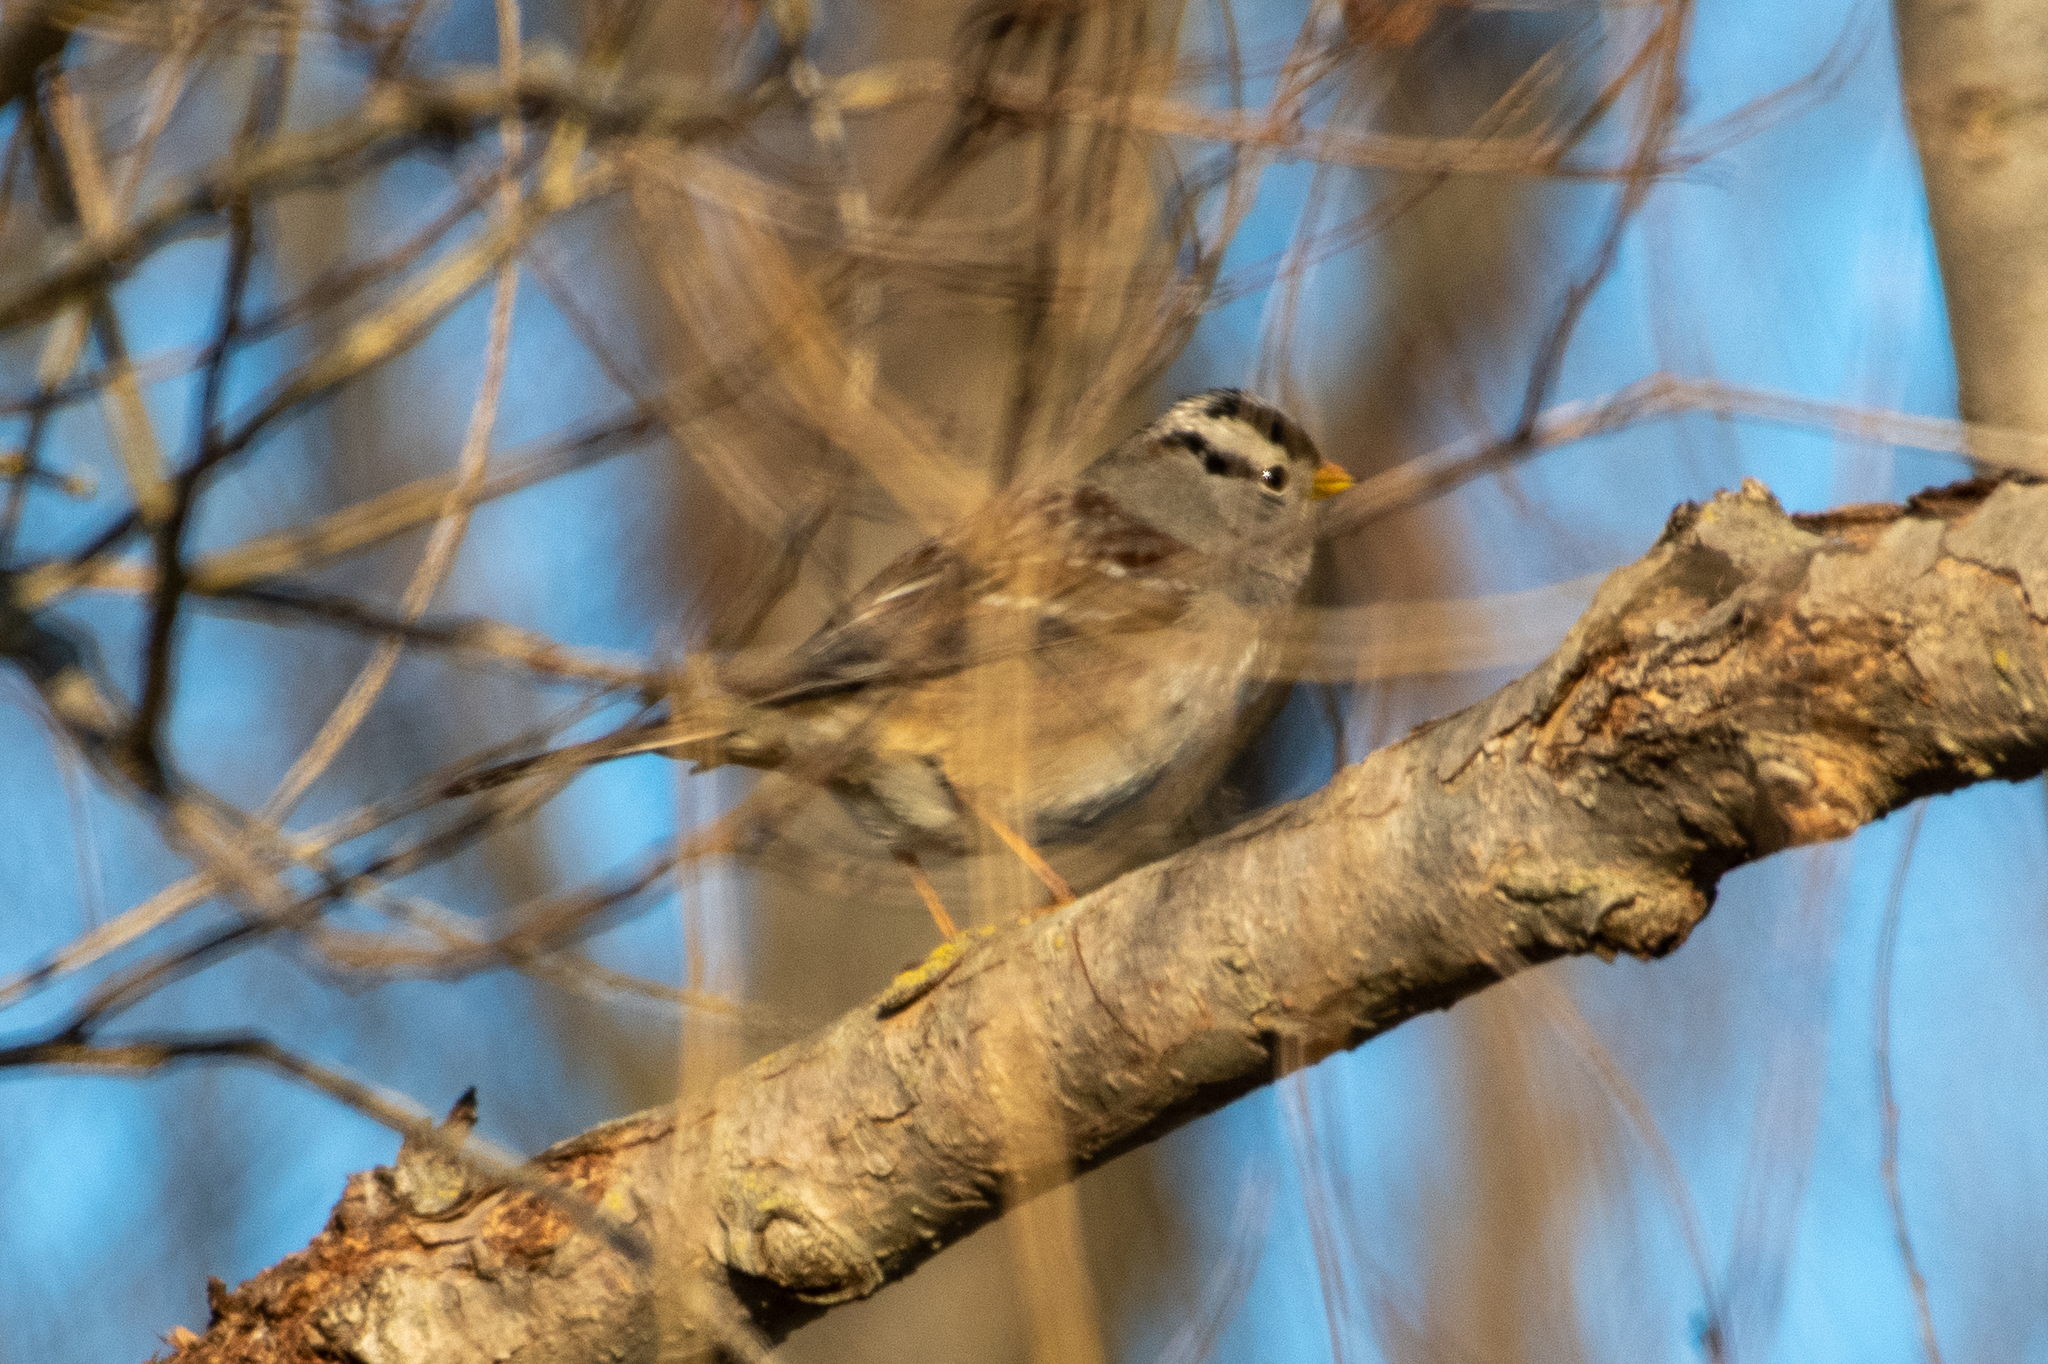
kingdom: Animalia
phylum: Chordata
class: Aves
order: Passeriformes
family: Passerellidae
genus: Zonotrichia
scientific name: Zonotrichia leucophrys
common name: White-crowned sparrow
